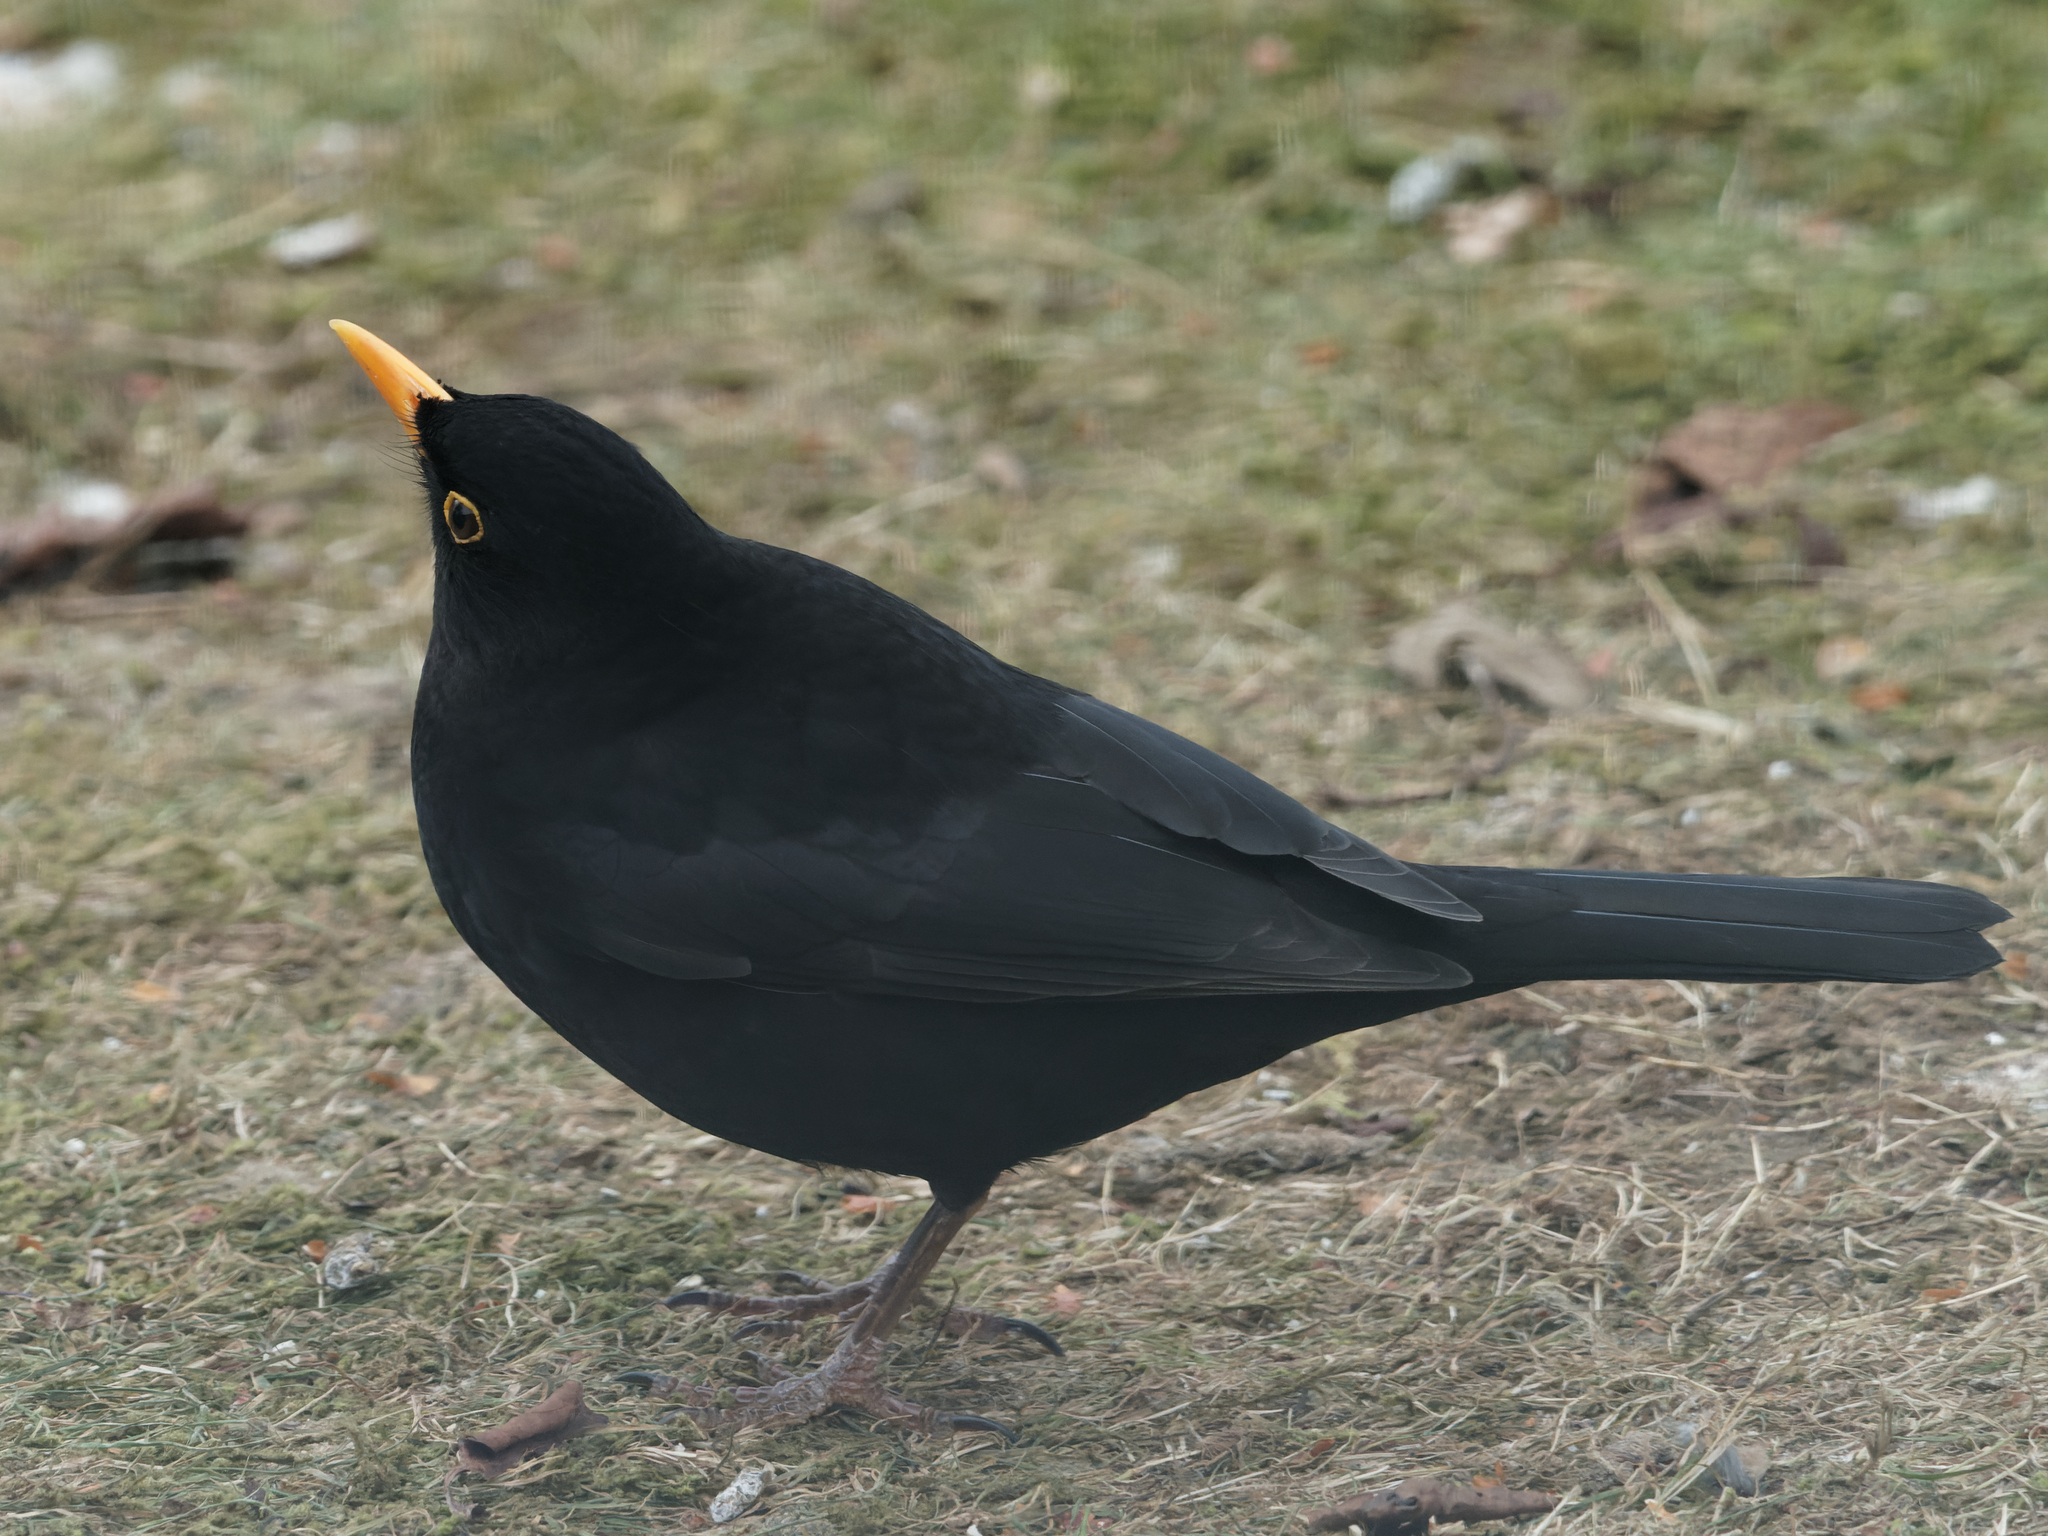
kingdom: Animalia
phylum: Chordata
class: Aves
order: Passeriformes
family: Turdidae
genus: Turdus
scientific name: Turdus merula
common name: Common blackbird
